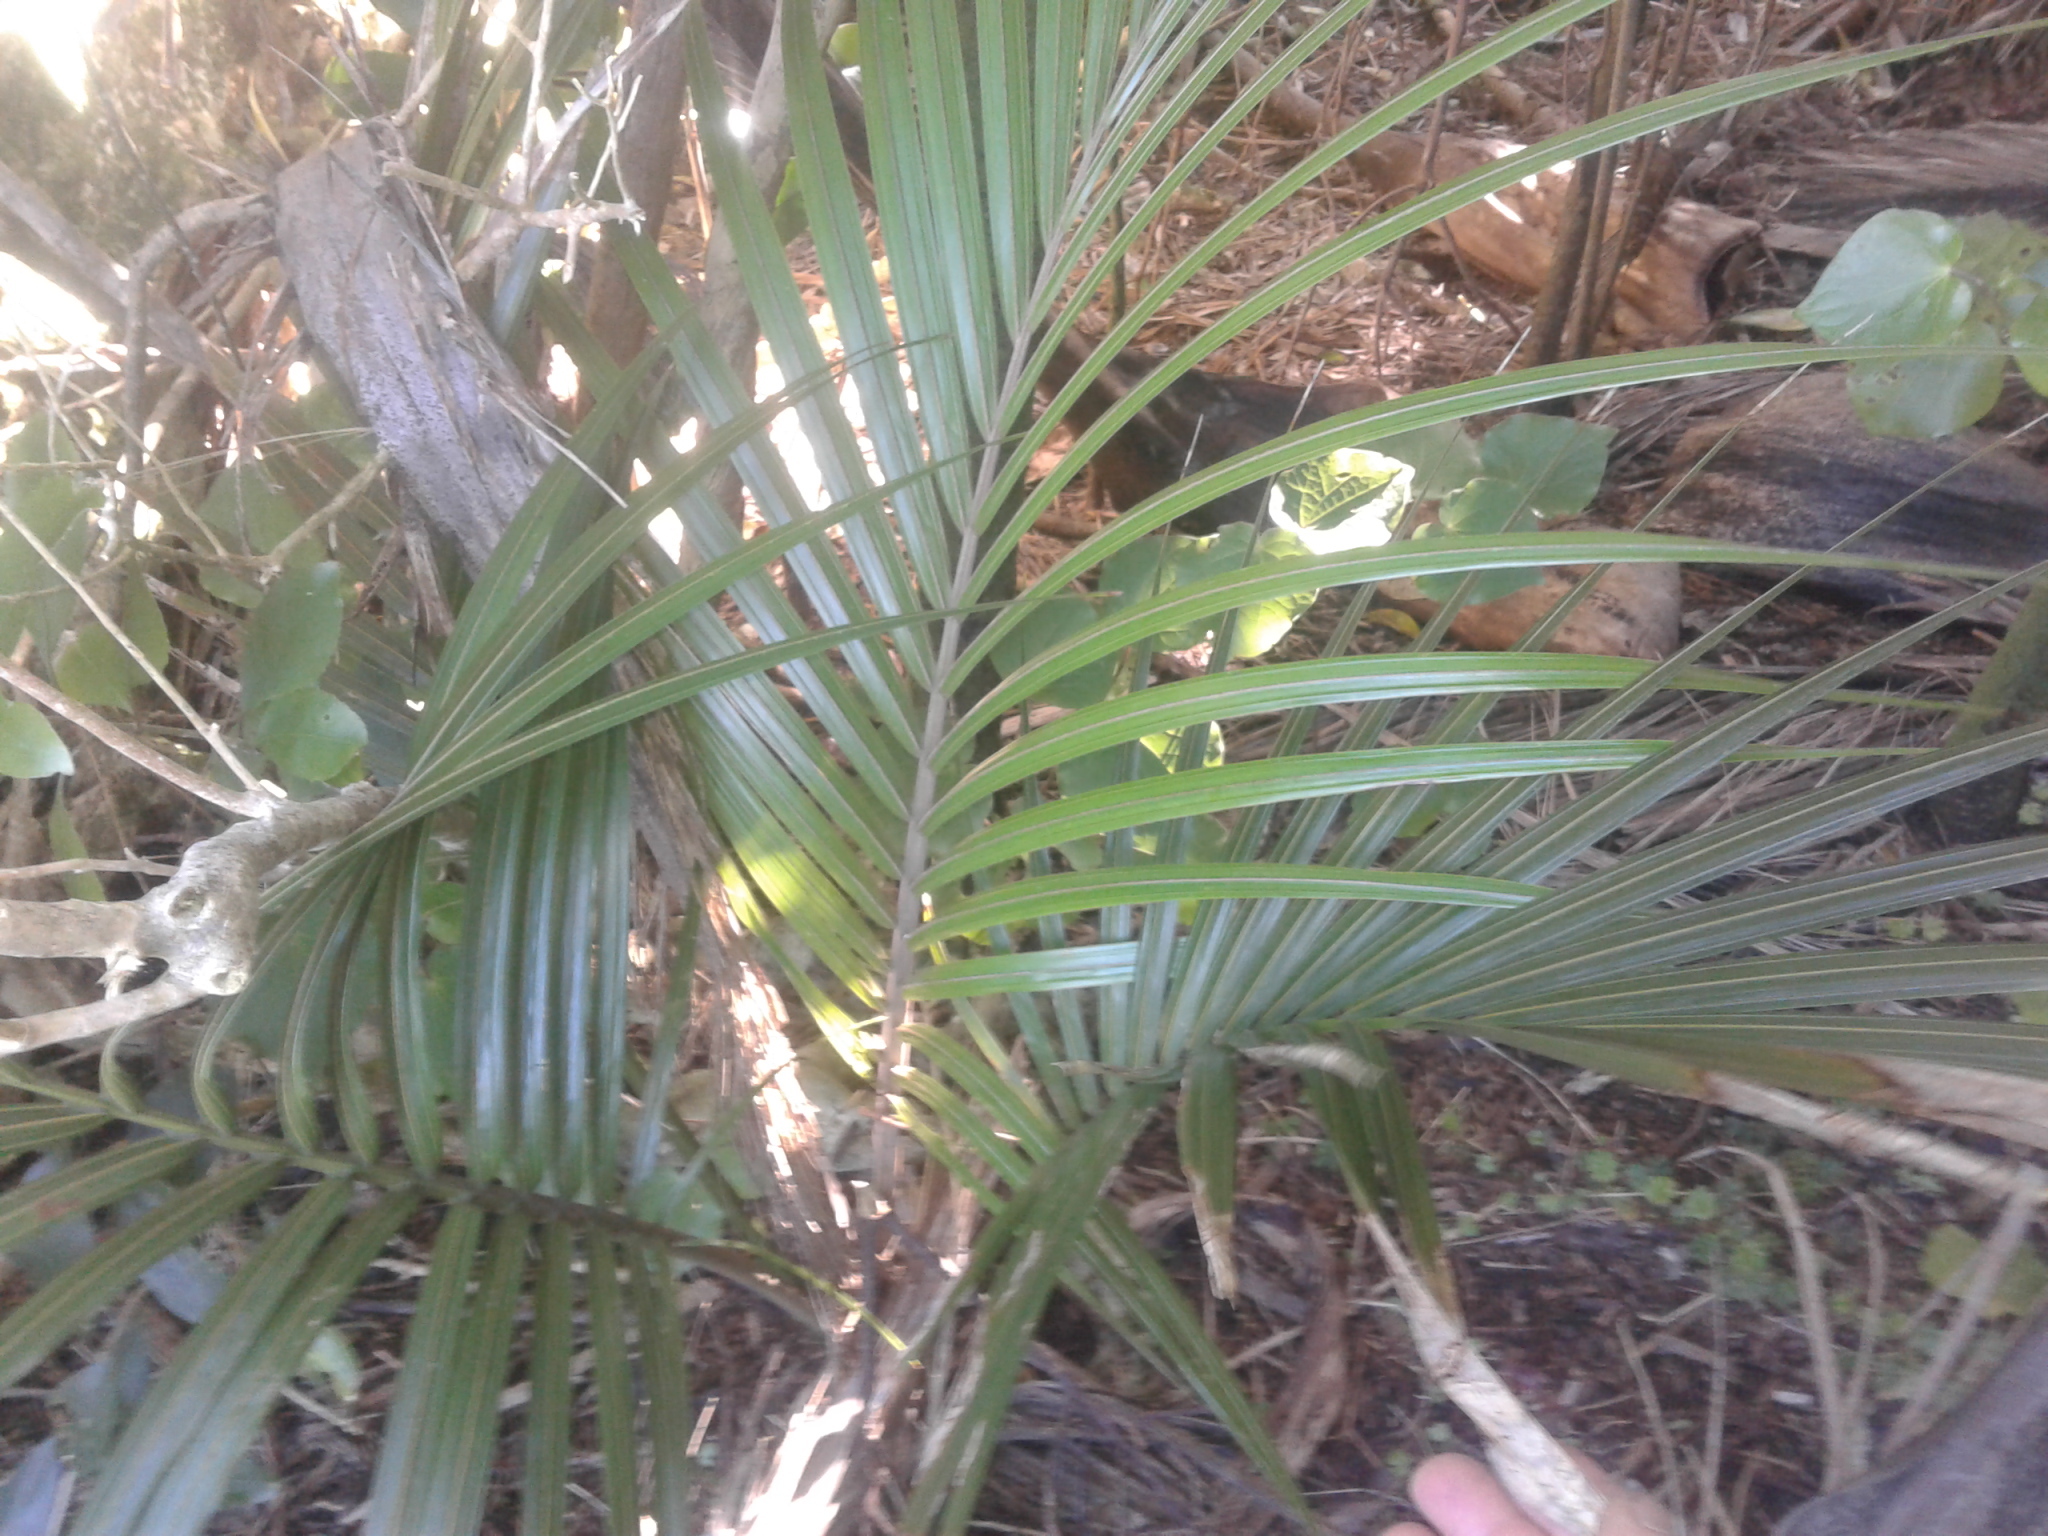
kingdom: Plantae
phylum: Tracheophyta
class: Liliopsida
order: Arecales
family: Arecaceae
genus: Rhopalostylis
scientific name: Rhopalostylis sapida
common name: Feather-duster palm
